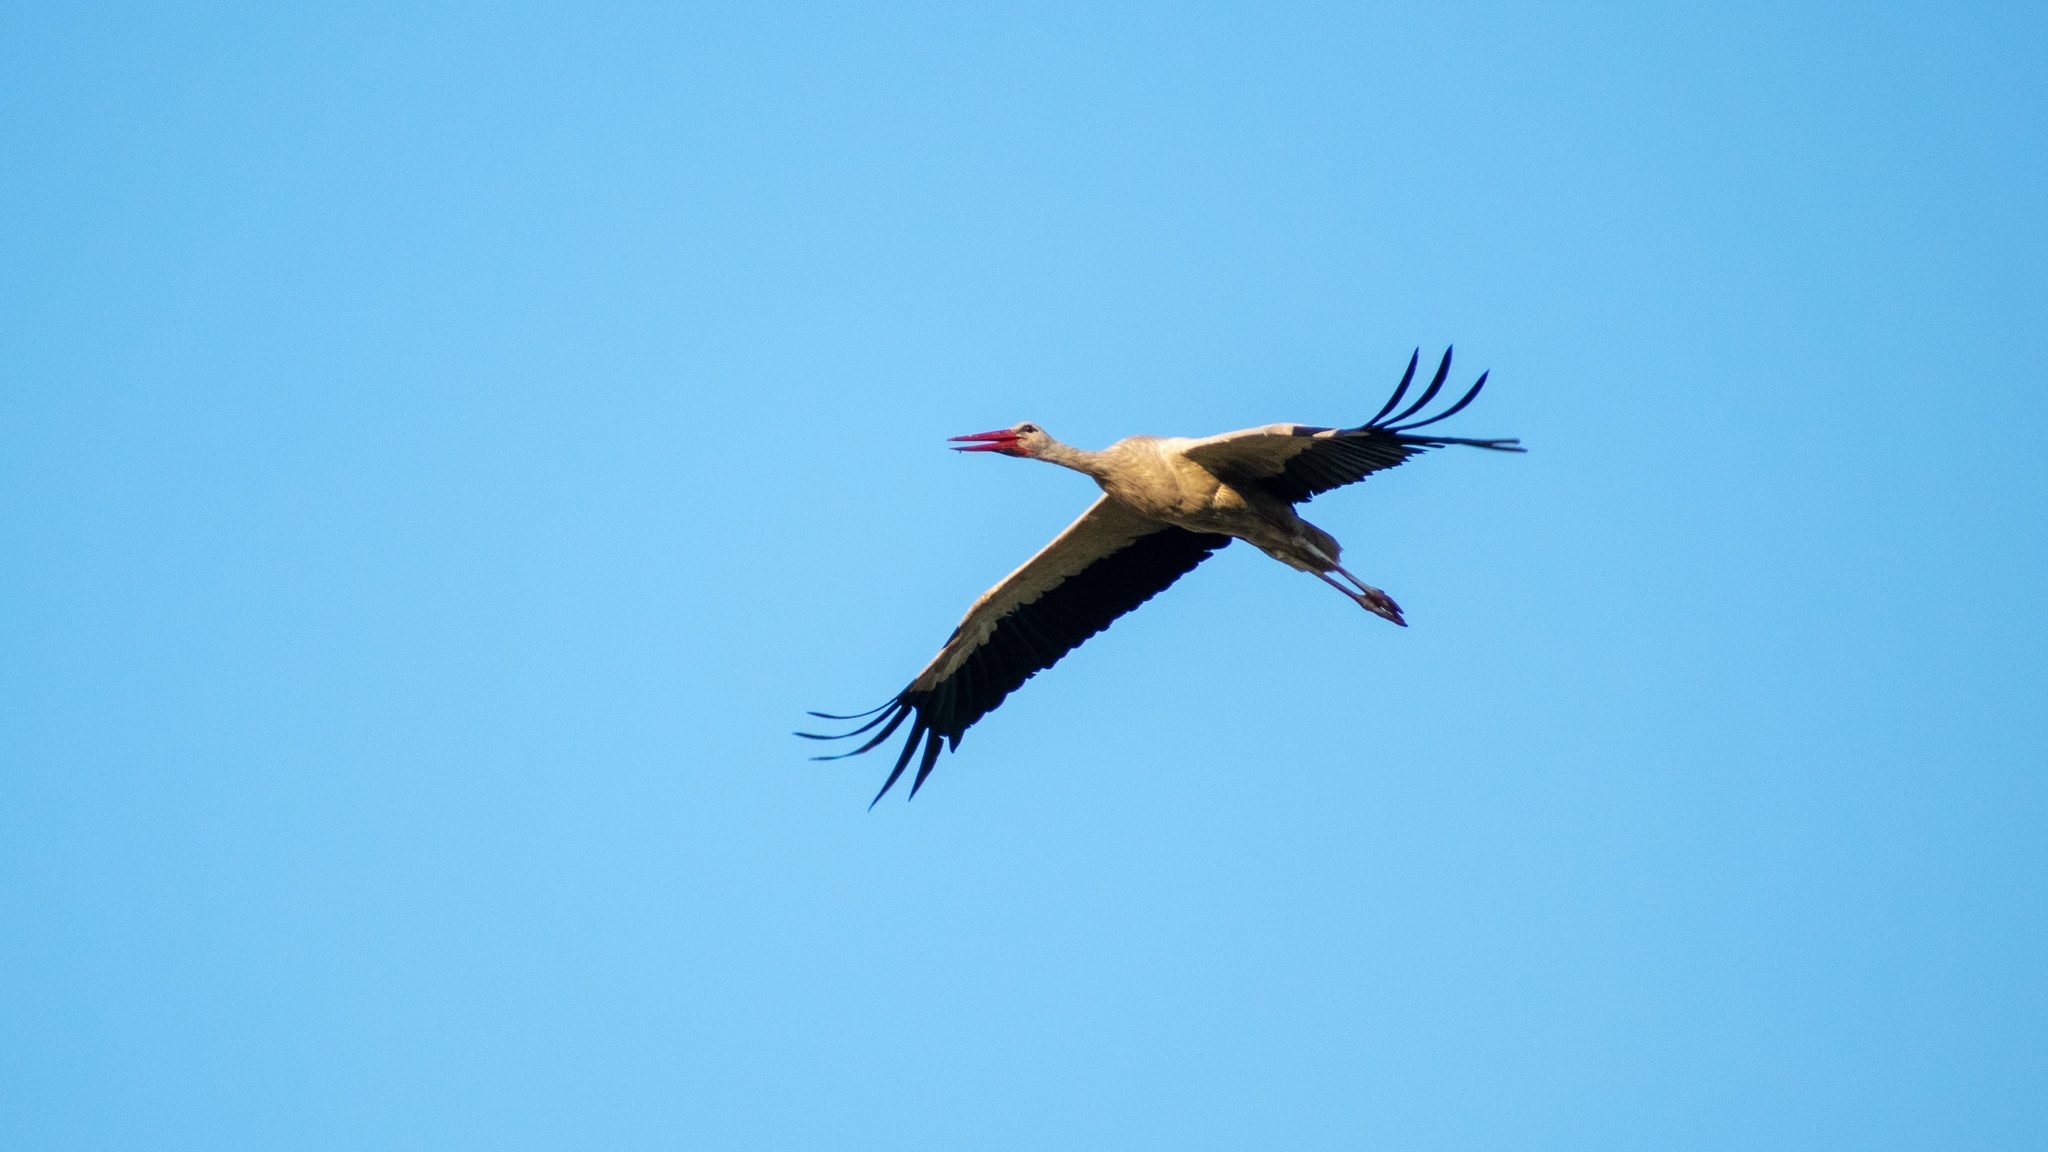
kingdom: Animalia
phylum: Chordata
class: Aves
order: Ciconiiformes
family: Ciconiidae
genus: Ciconia
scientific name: Ciconia ciconia
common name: White stork
